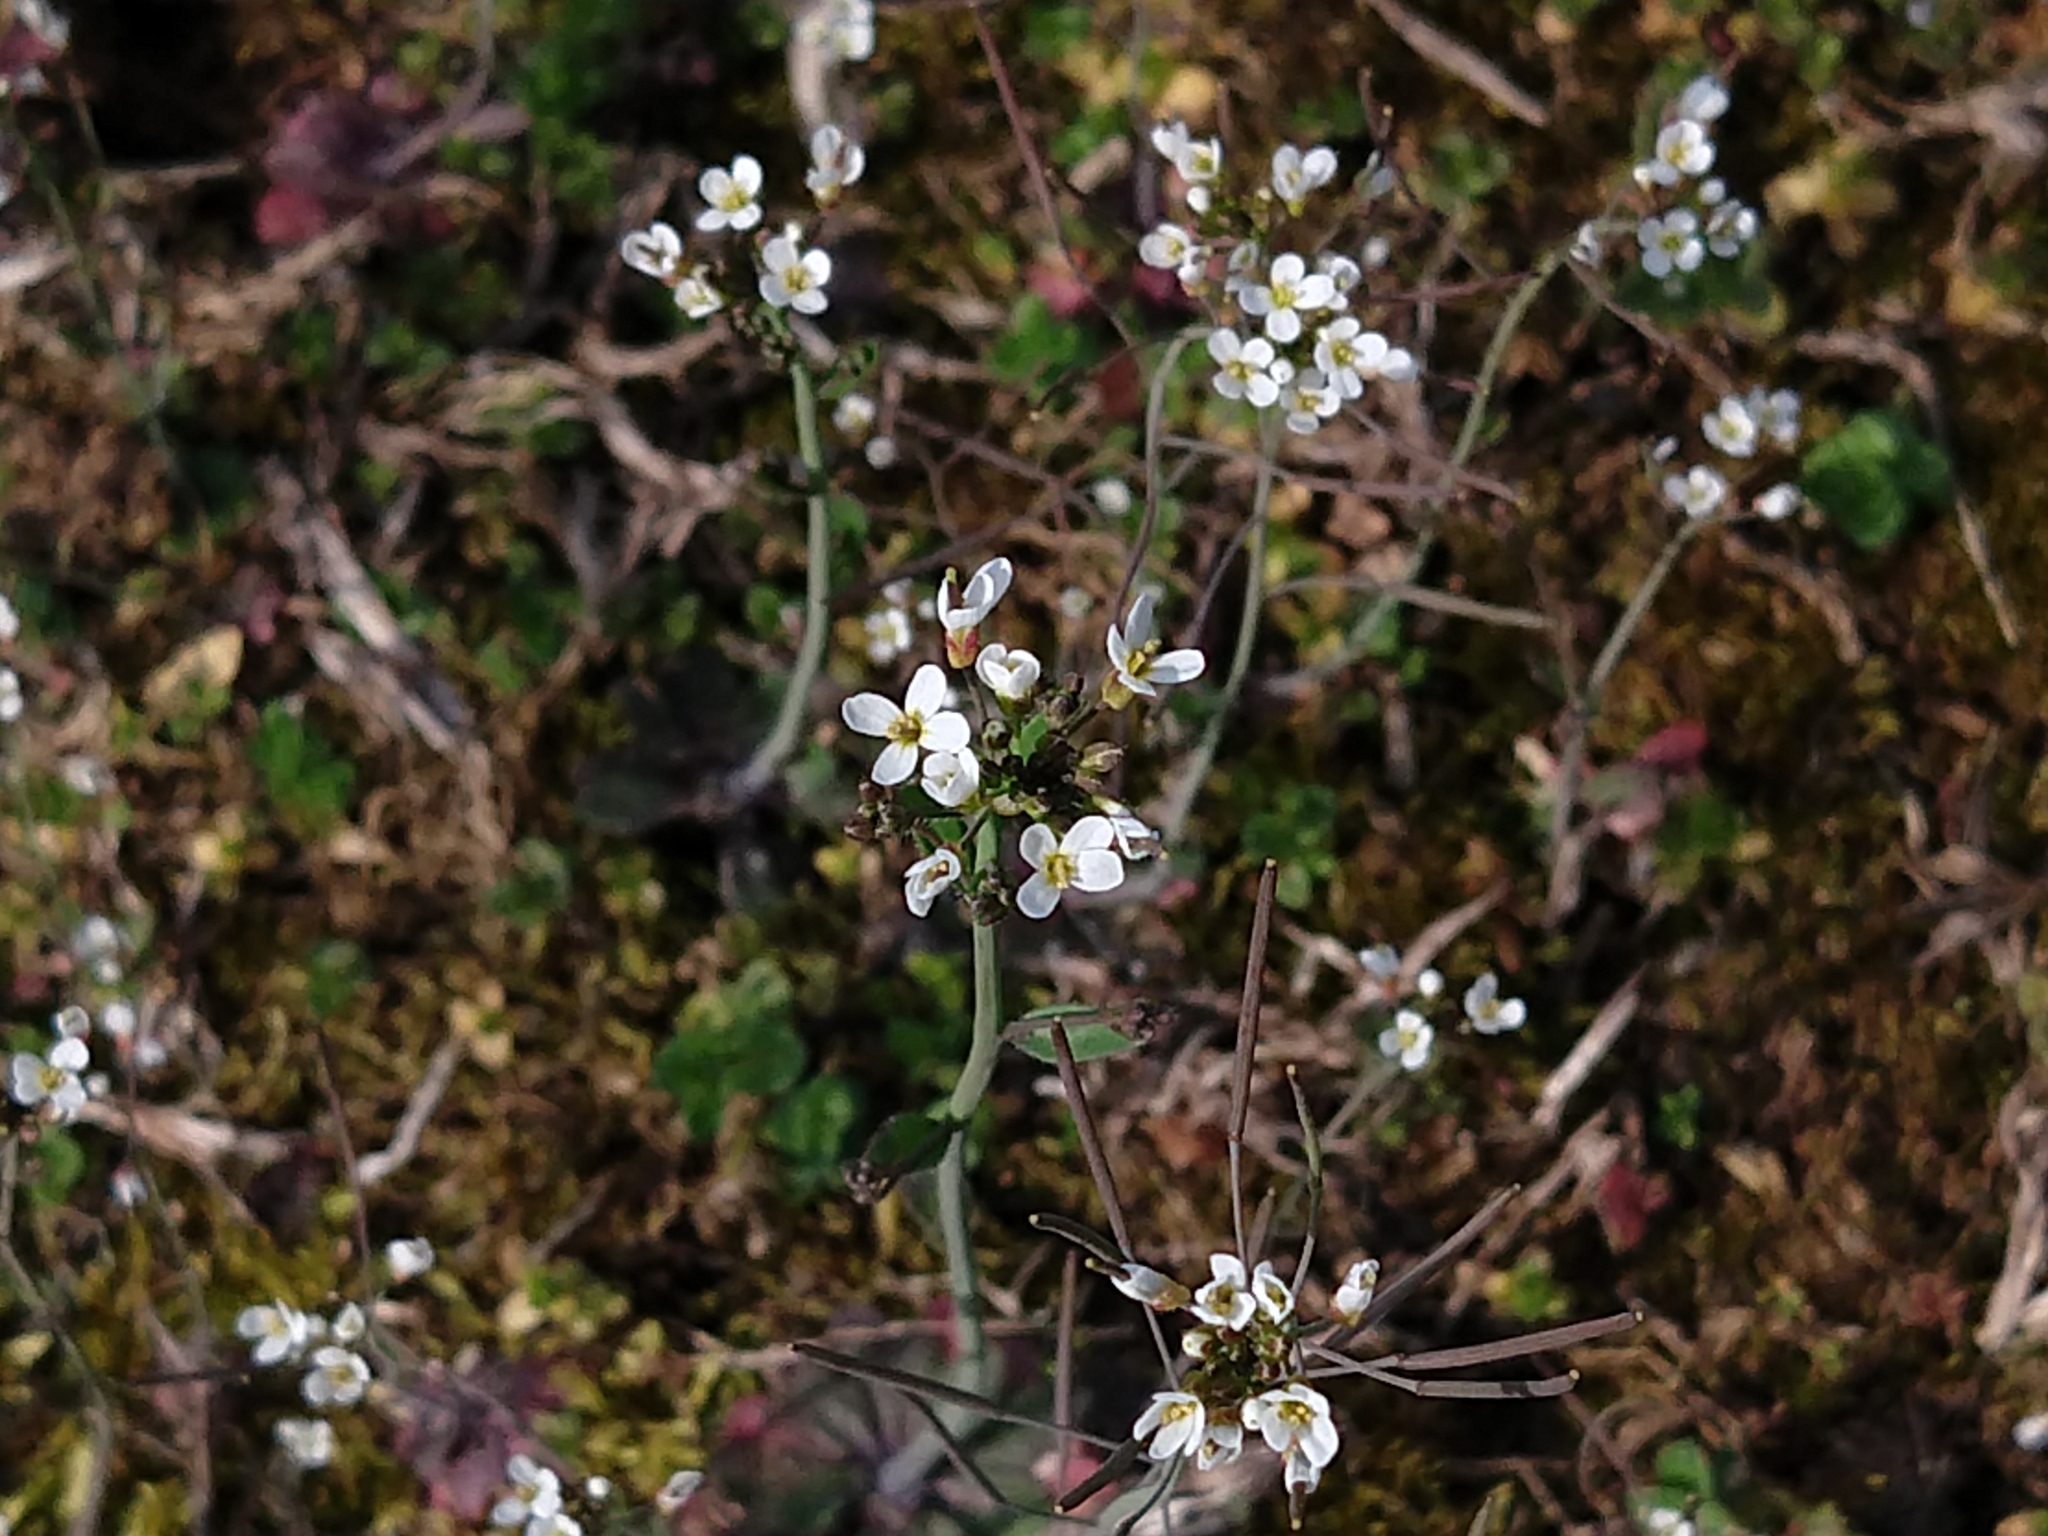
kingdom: Plantae
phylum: Tracheophyta
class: Magnoliopsida
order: Brassicales
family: Brassicaceae
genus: Arabidopsis
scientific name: Arabidopsis thaliana
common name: Thale cress
